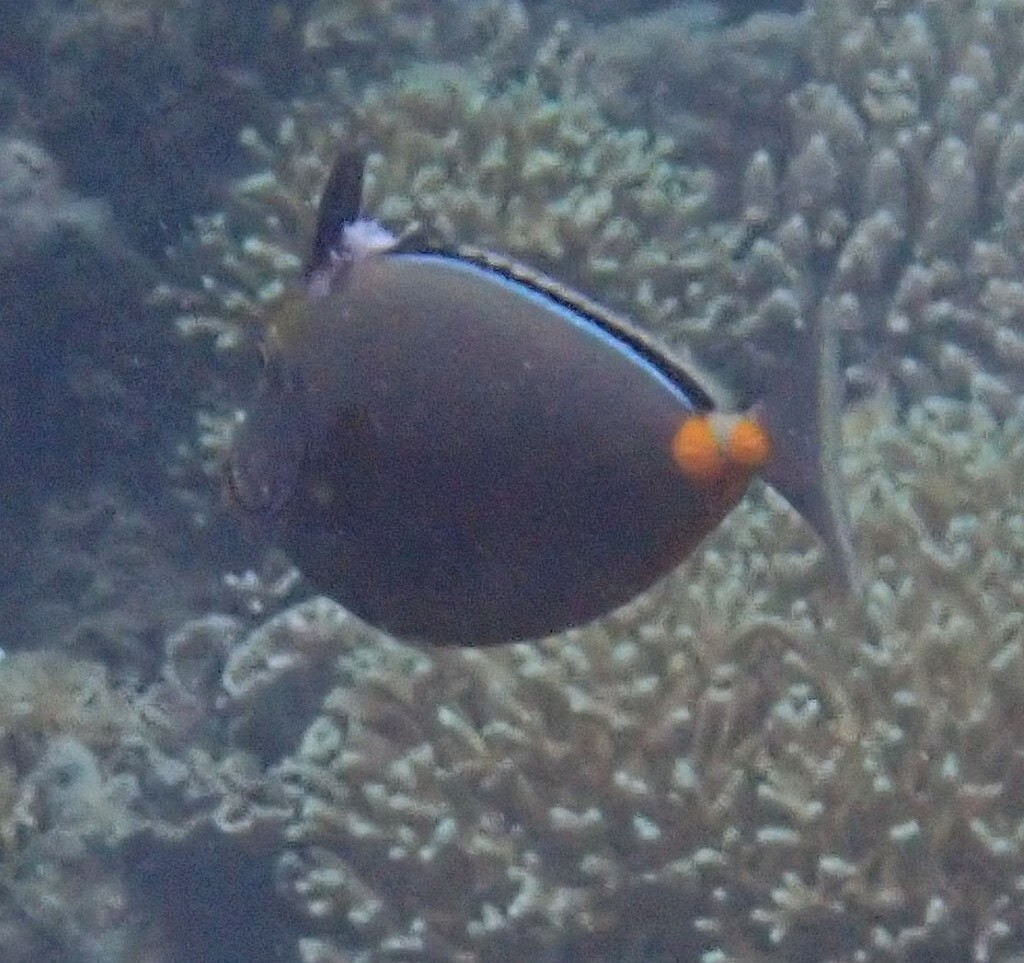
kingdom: Animalia
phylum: Chordata
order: Perciformes
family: Acanthuridae
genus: Naso
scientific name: Naso lituratus
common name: Orangespine unicornfish
